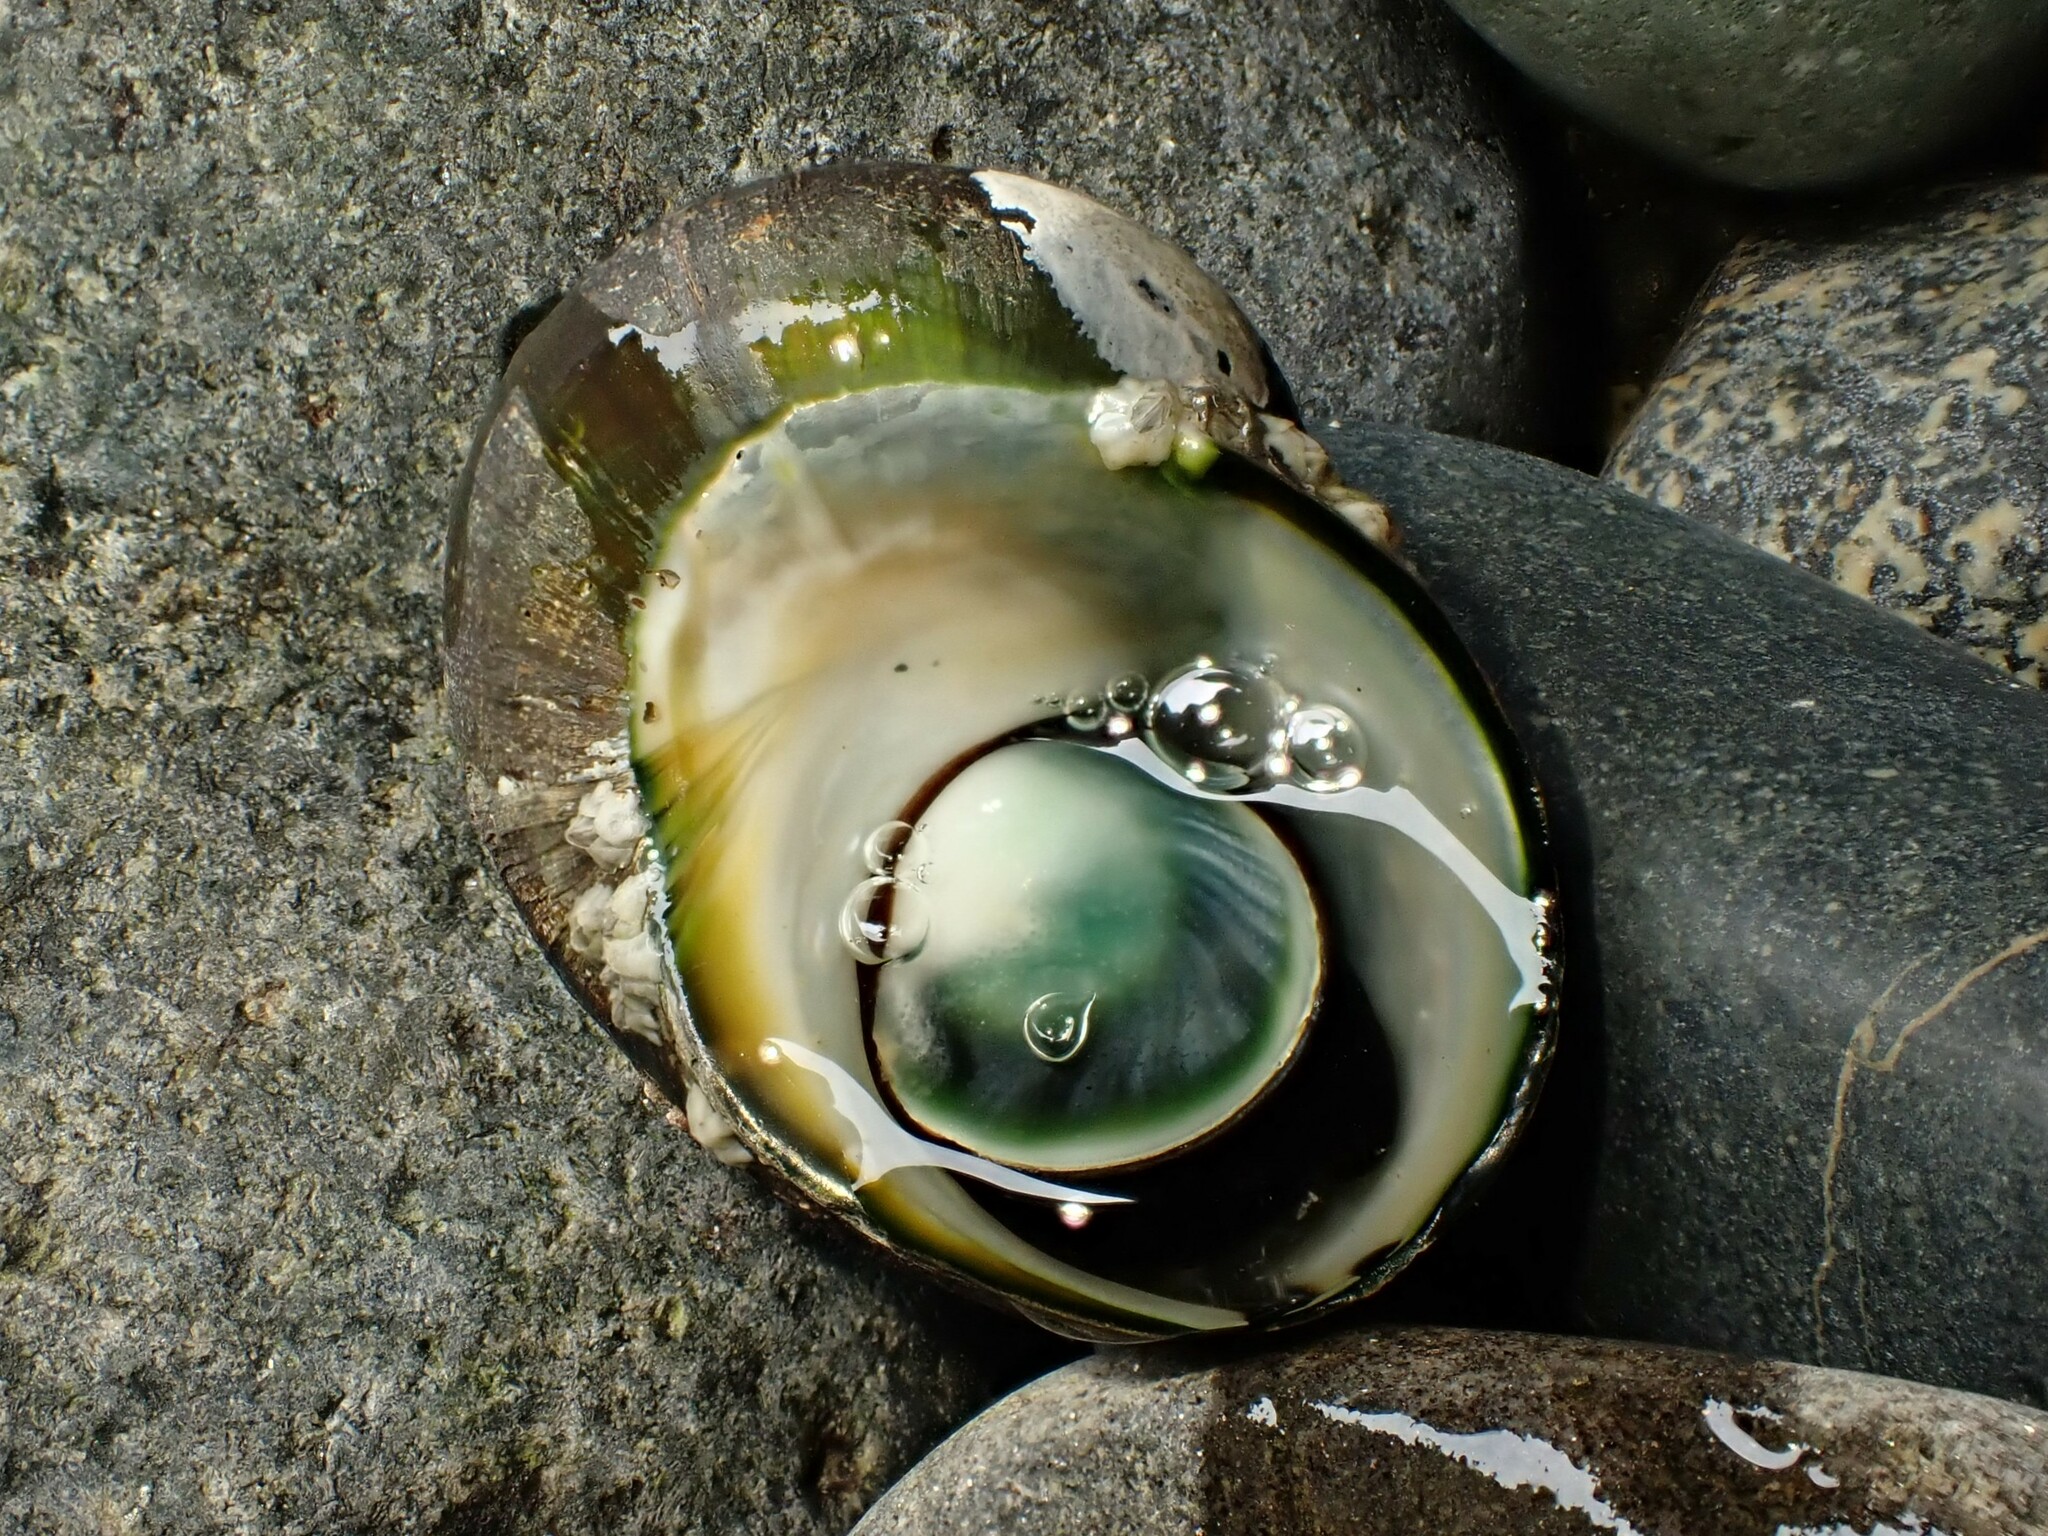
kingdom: Animalia
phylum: Mollusca
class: Gastropoda
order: Trochida
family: Turbinidae
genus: Lunella
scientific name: Lunella smaragda
